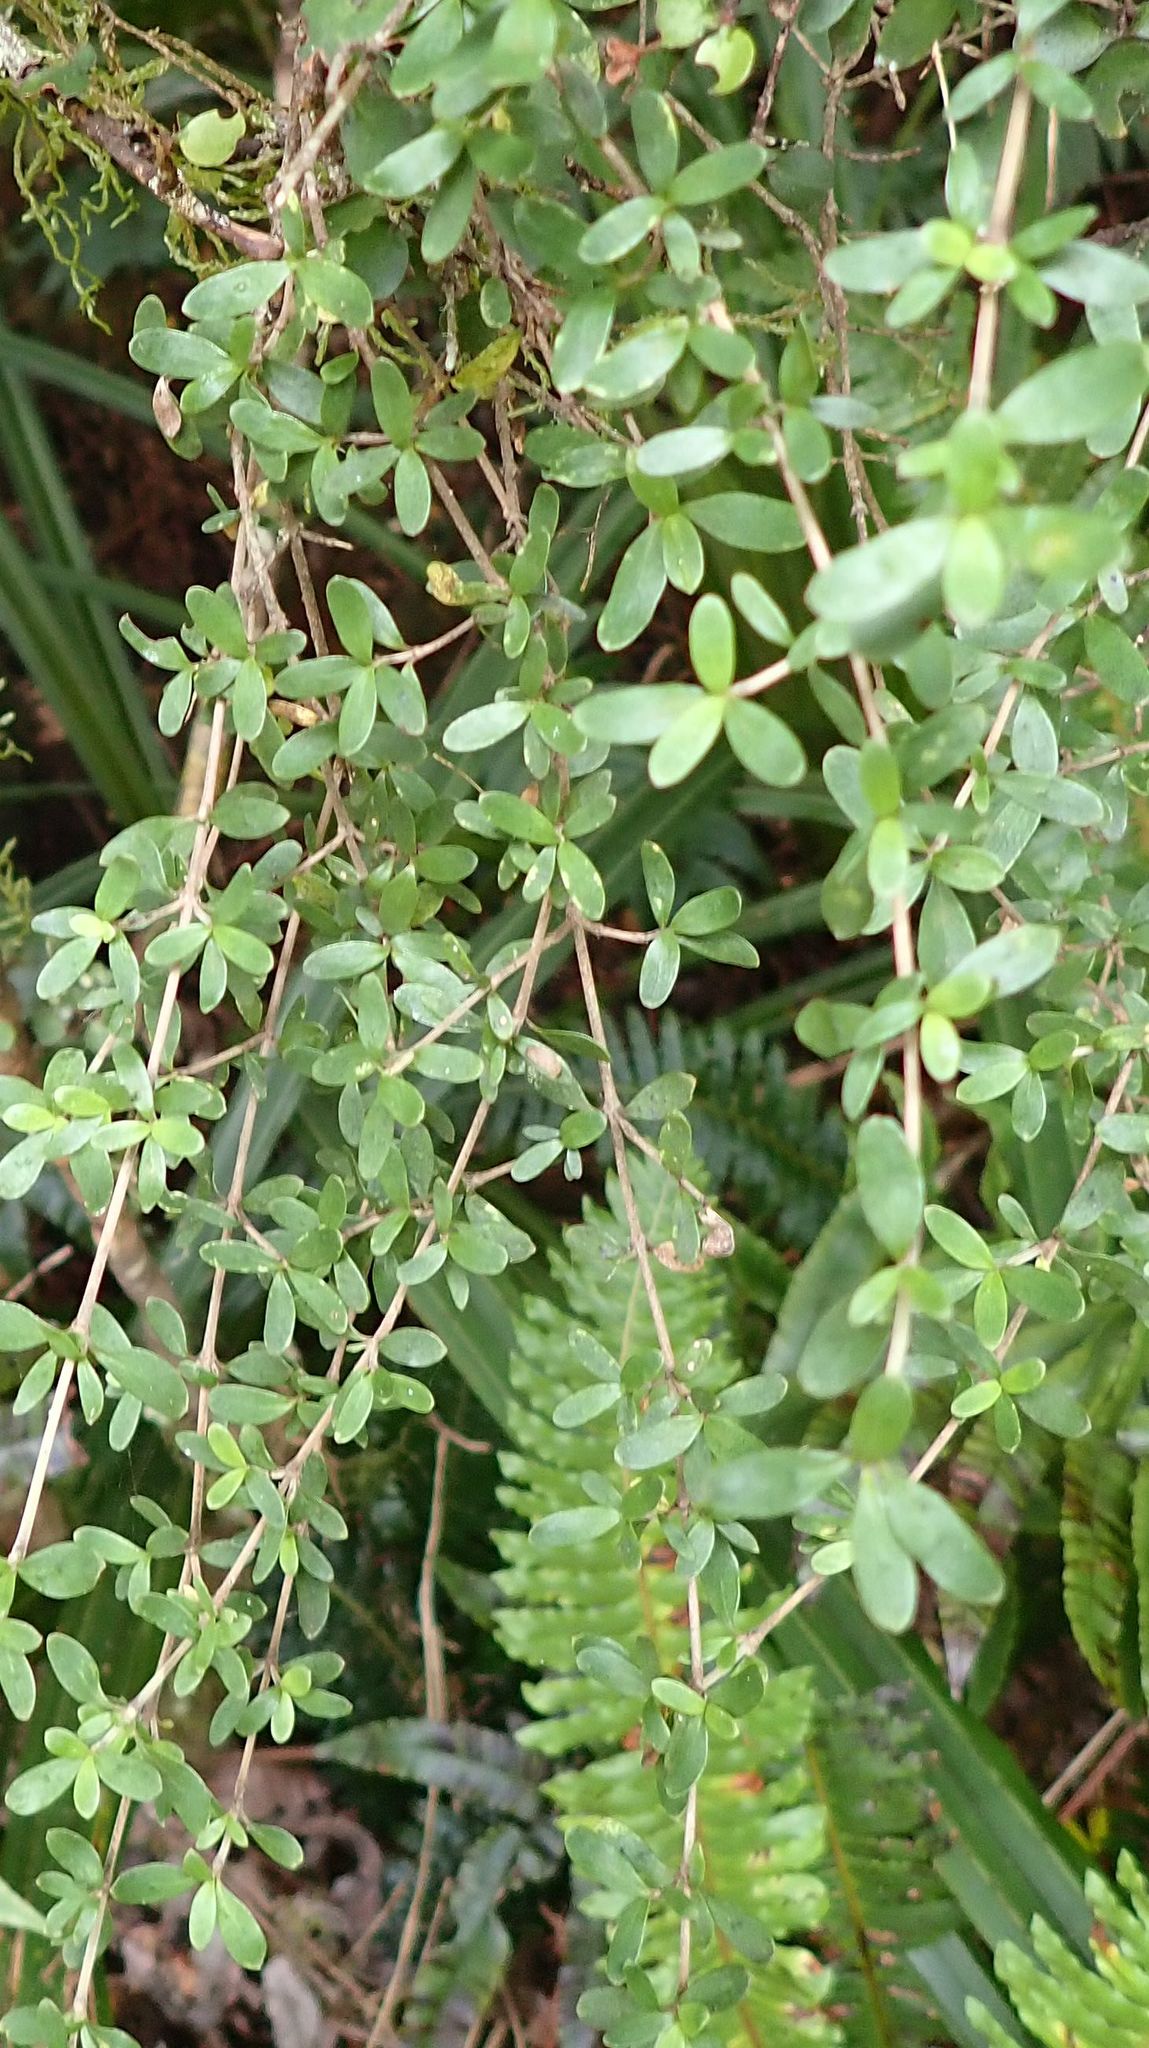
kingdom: Plantae
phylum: Tracheophyta
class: Magnoliopsida
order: Gentianales
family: Rubiaceae
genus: Coprosma
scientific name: Coprosma propinqua
